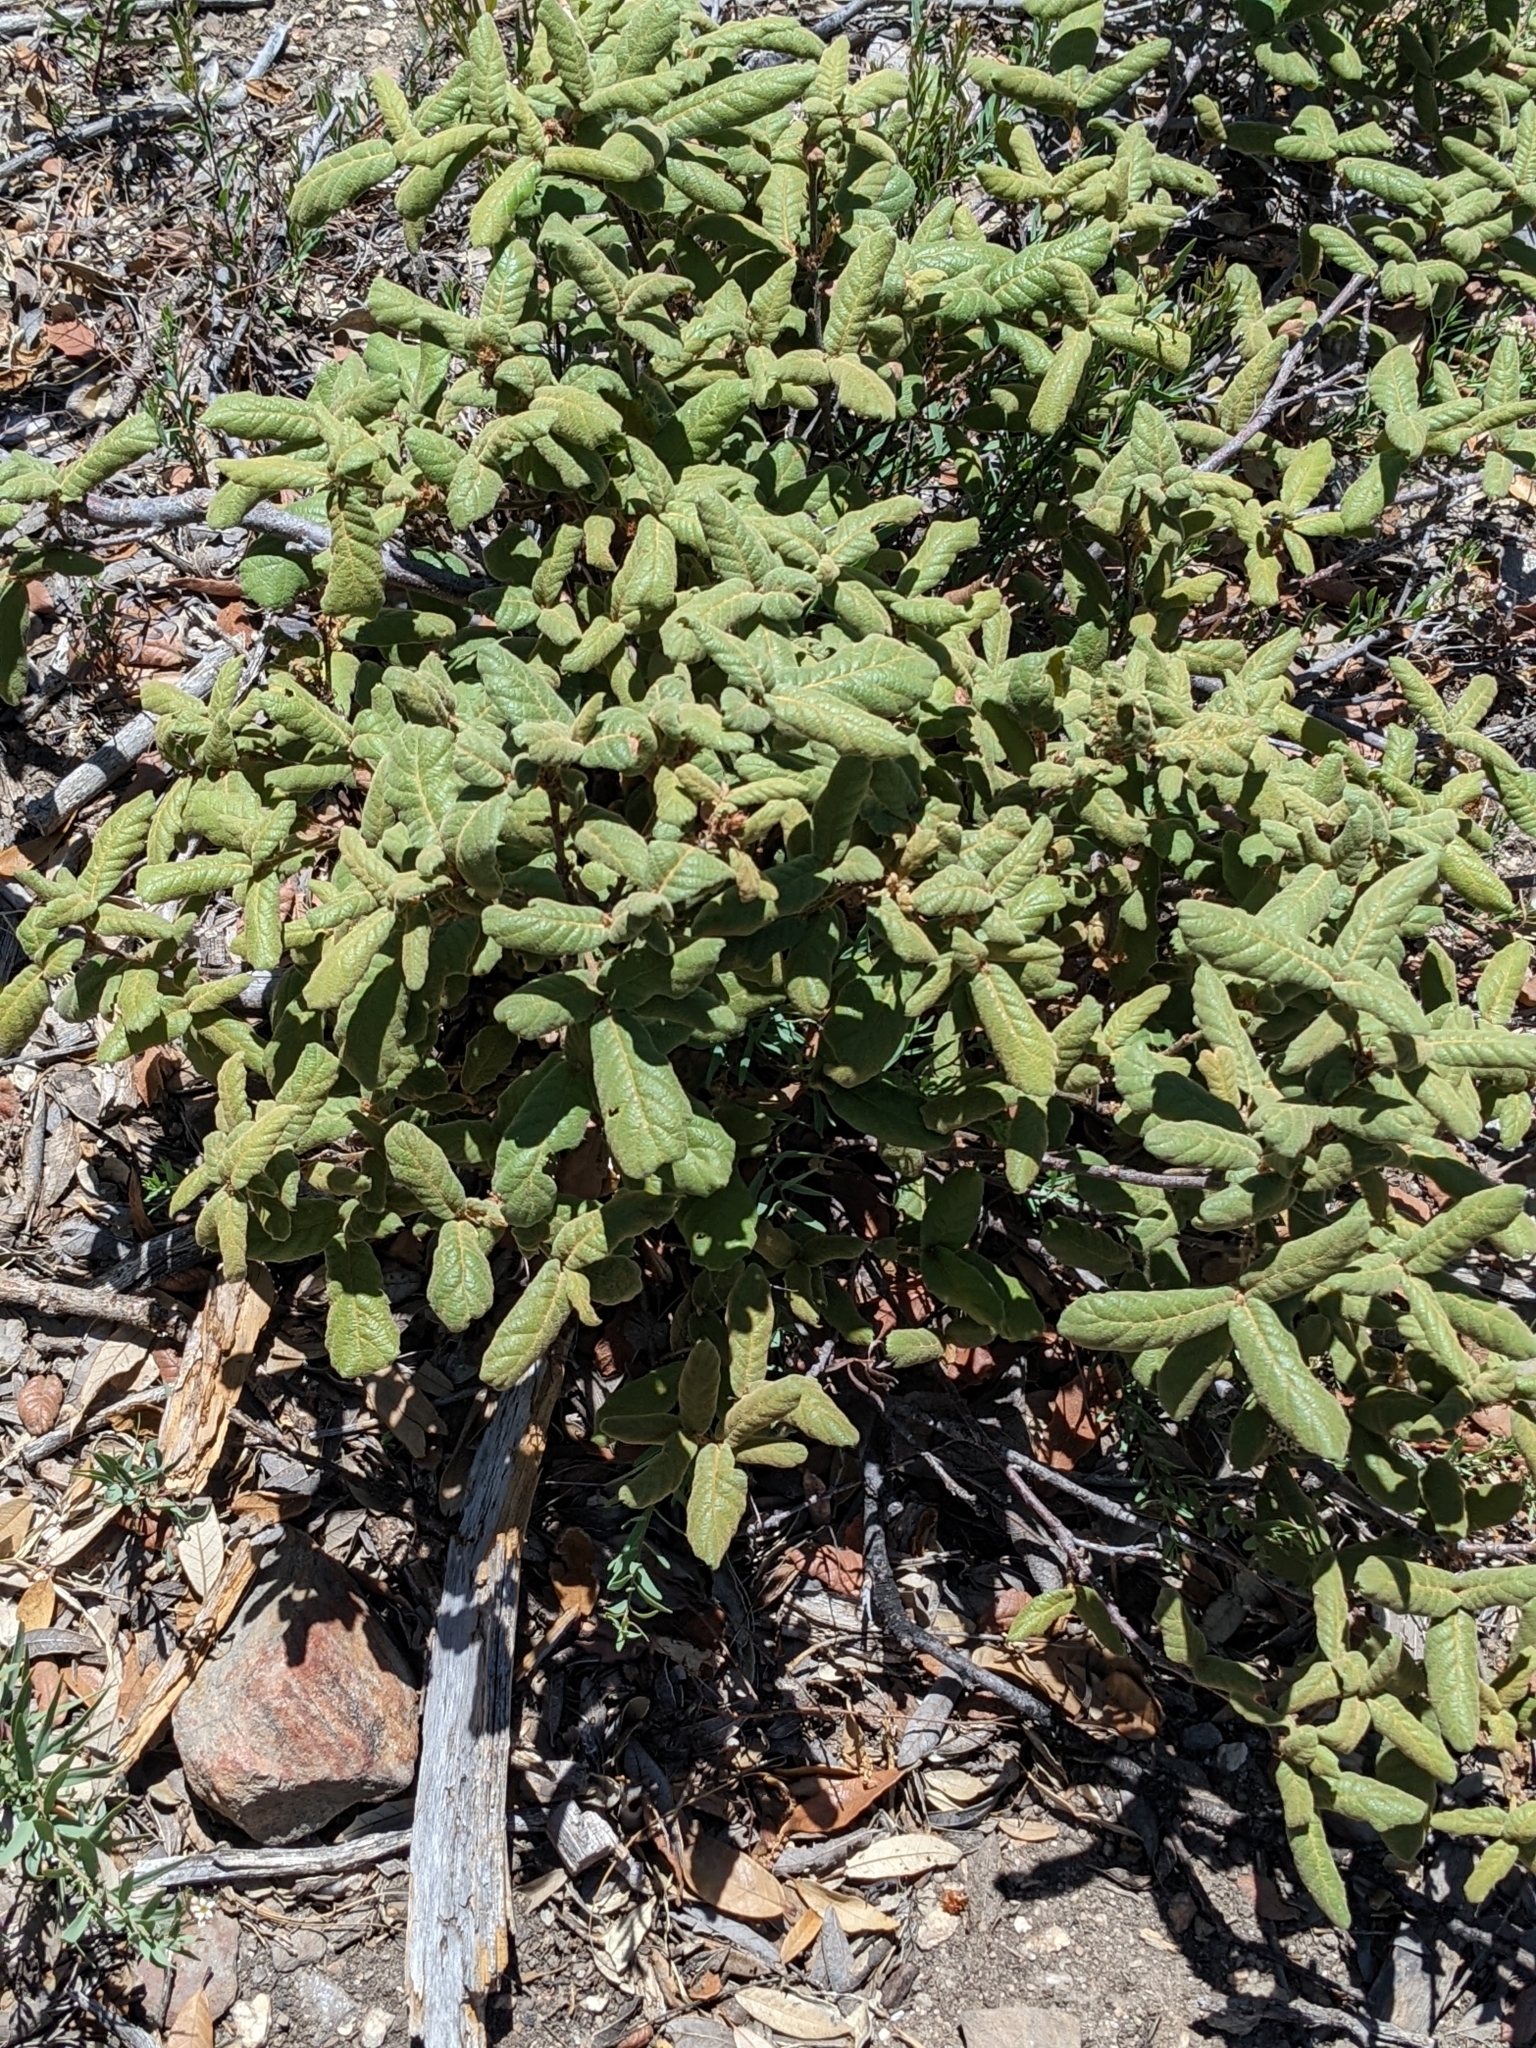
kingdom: Plantae
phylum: Tracheophyta
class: Magnoliopsida
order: Fagales
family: Fagaceae
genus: Quercus
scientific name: Quercus rugosa
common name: Netleaf oak
